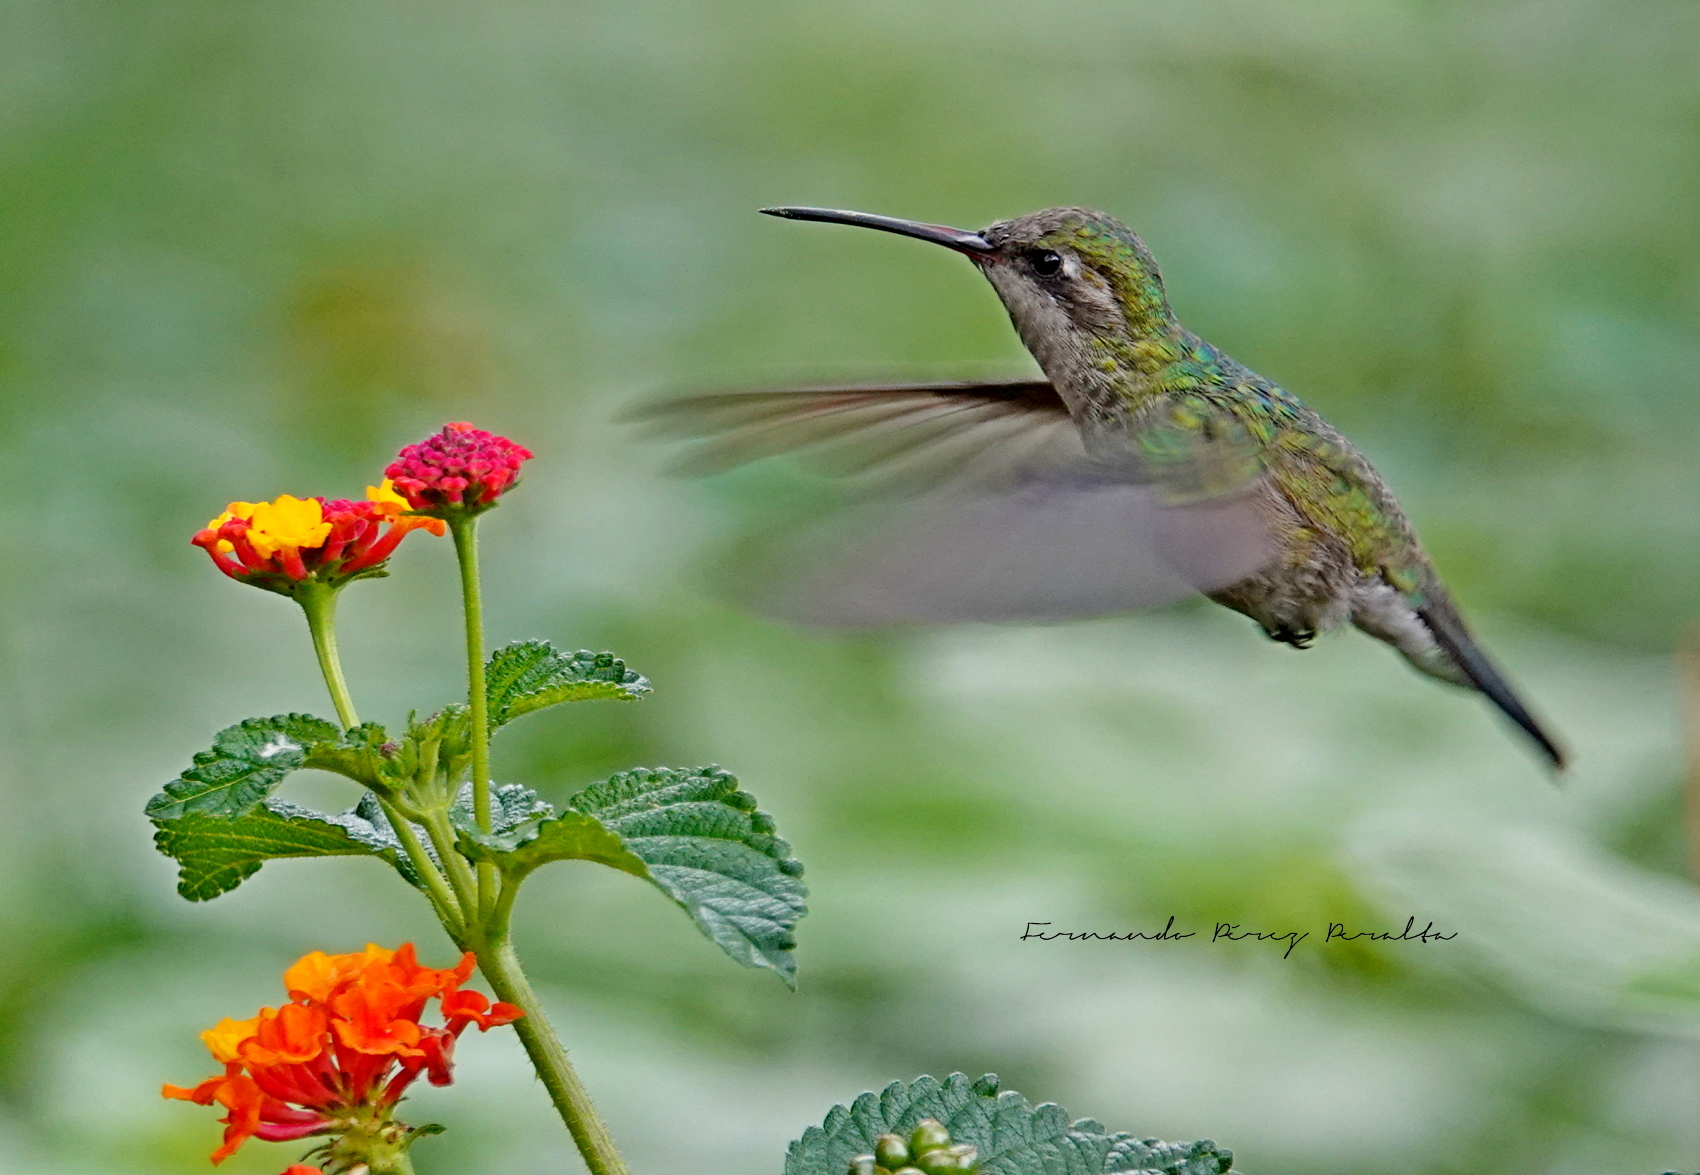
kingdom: Animalia
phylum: Chordata
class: Aves
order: Apodiformes
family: Trochilidae
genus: Cynanthus
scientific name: Cynanthus latirostris
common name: Broad-billed hummingbird
